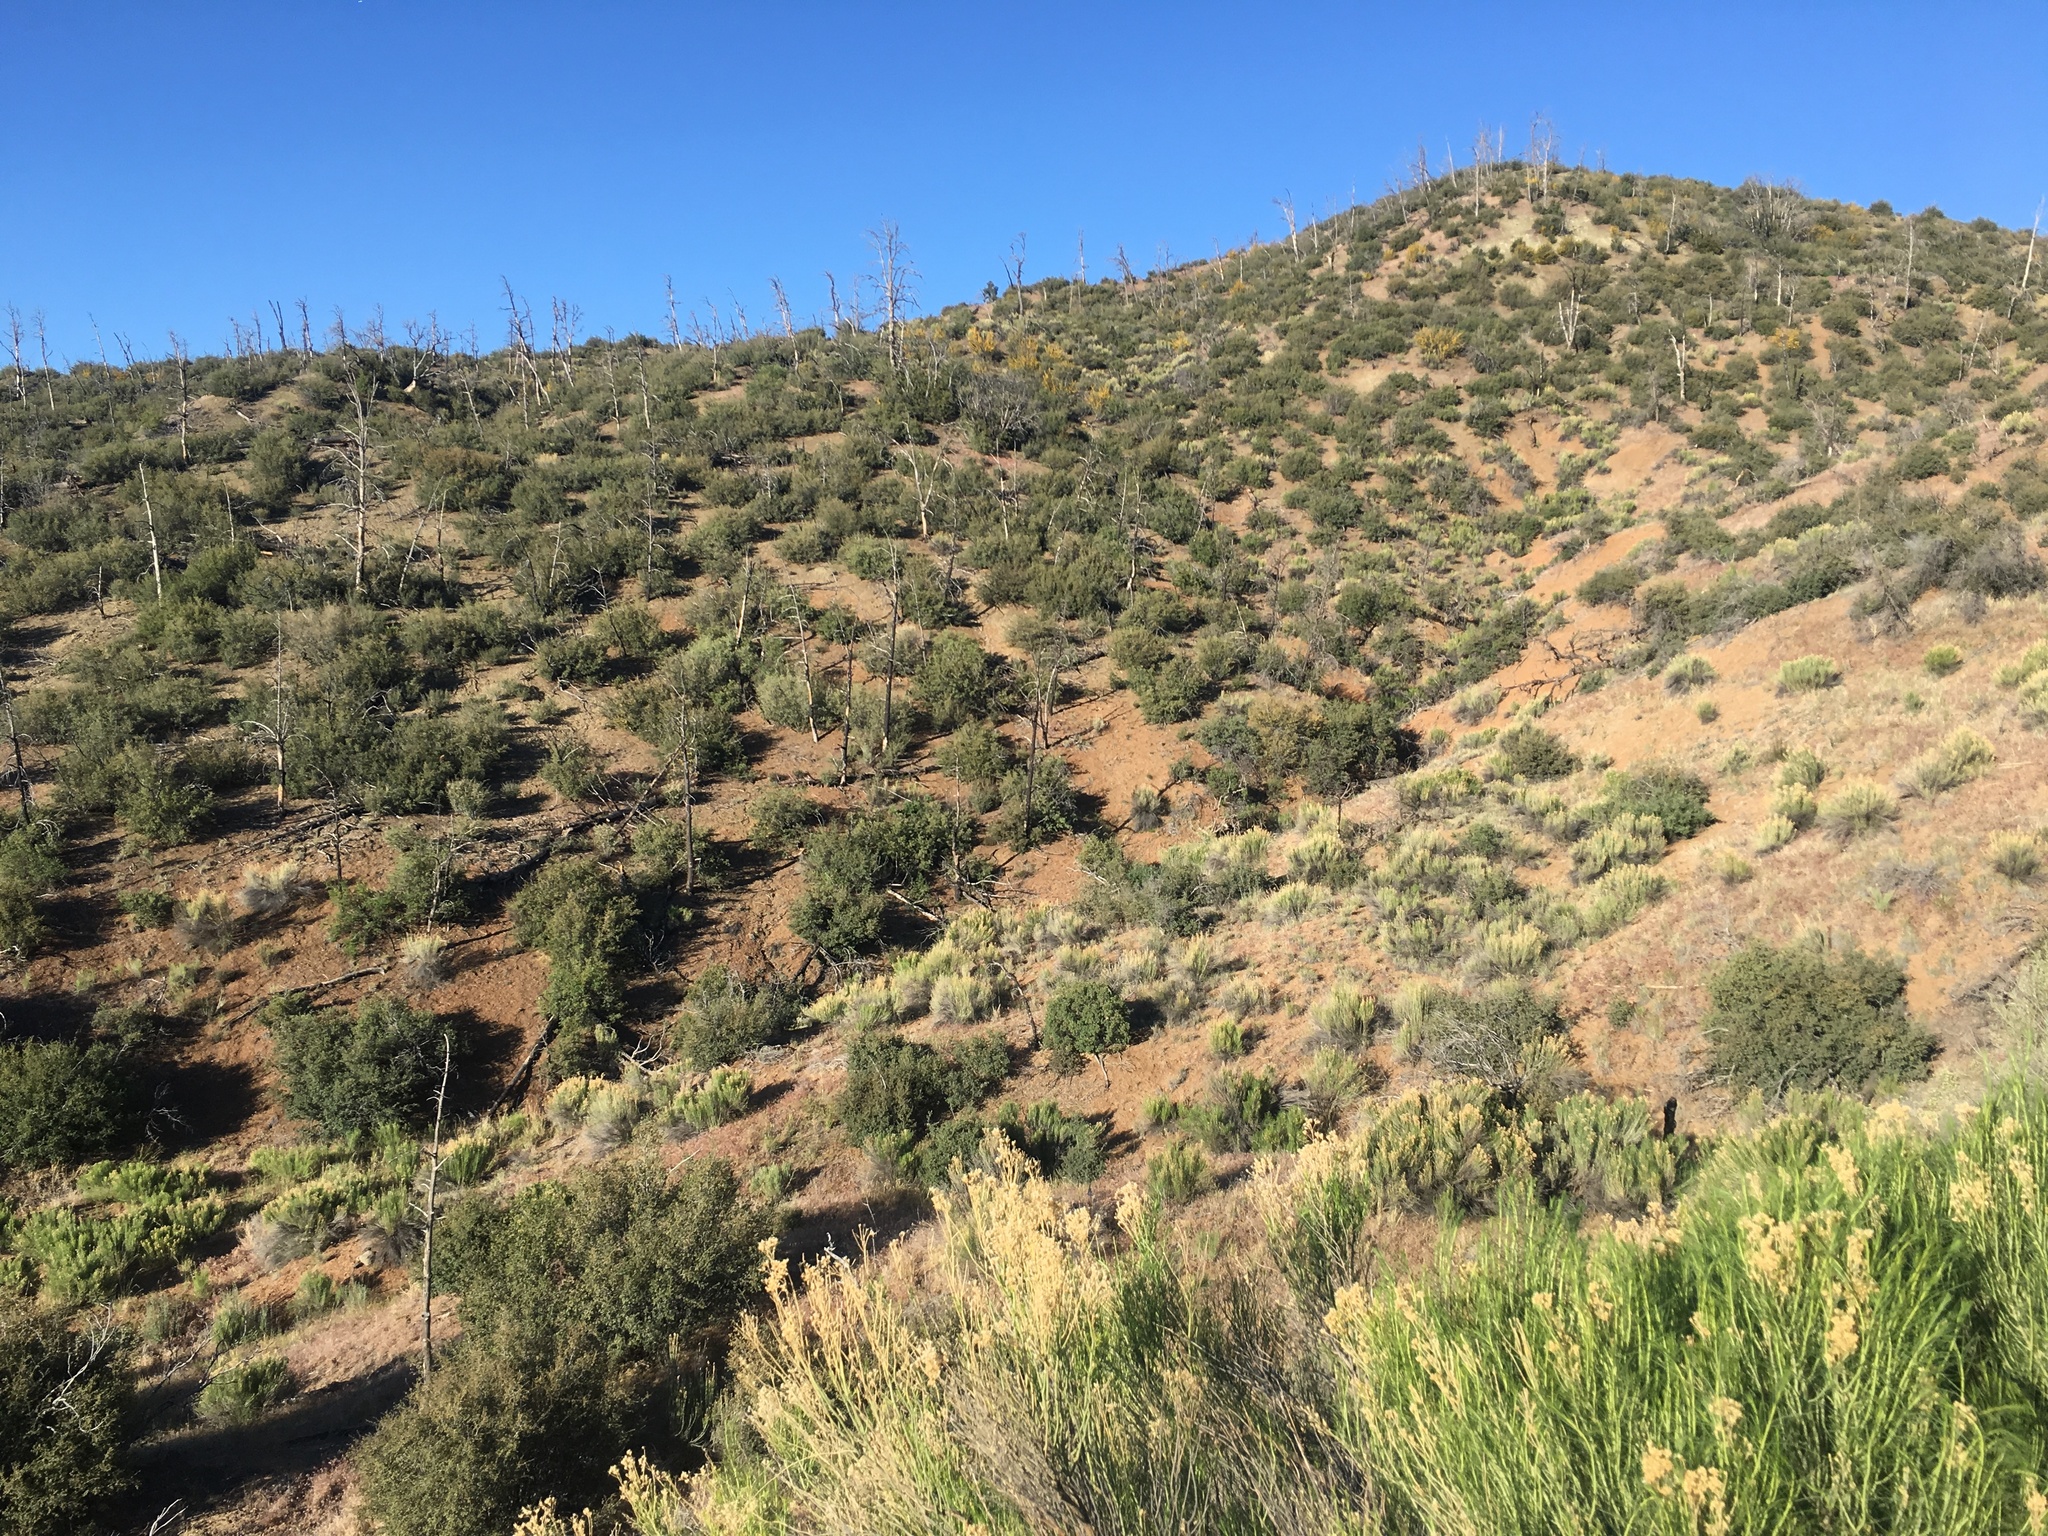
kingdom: Plantae
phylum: Tracheophyta
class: Magnoliopsida
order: Asterales
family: Asteraceae
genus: Ericameria
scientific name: Ericameria nauseosa
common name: Rubber rabbitbrush
